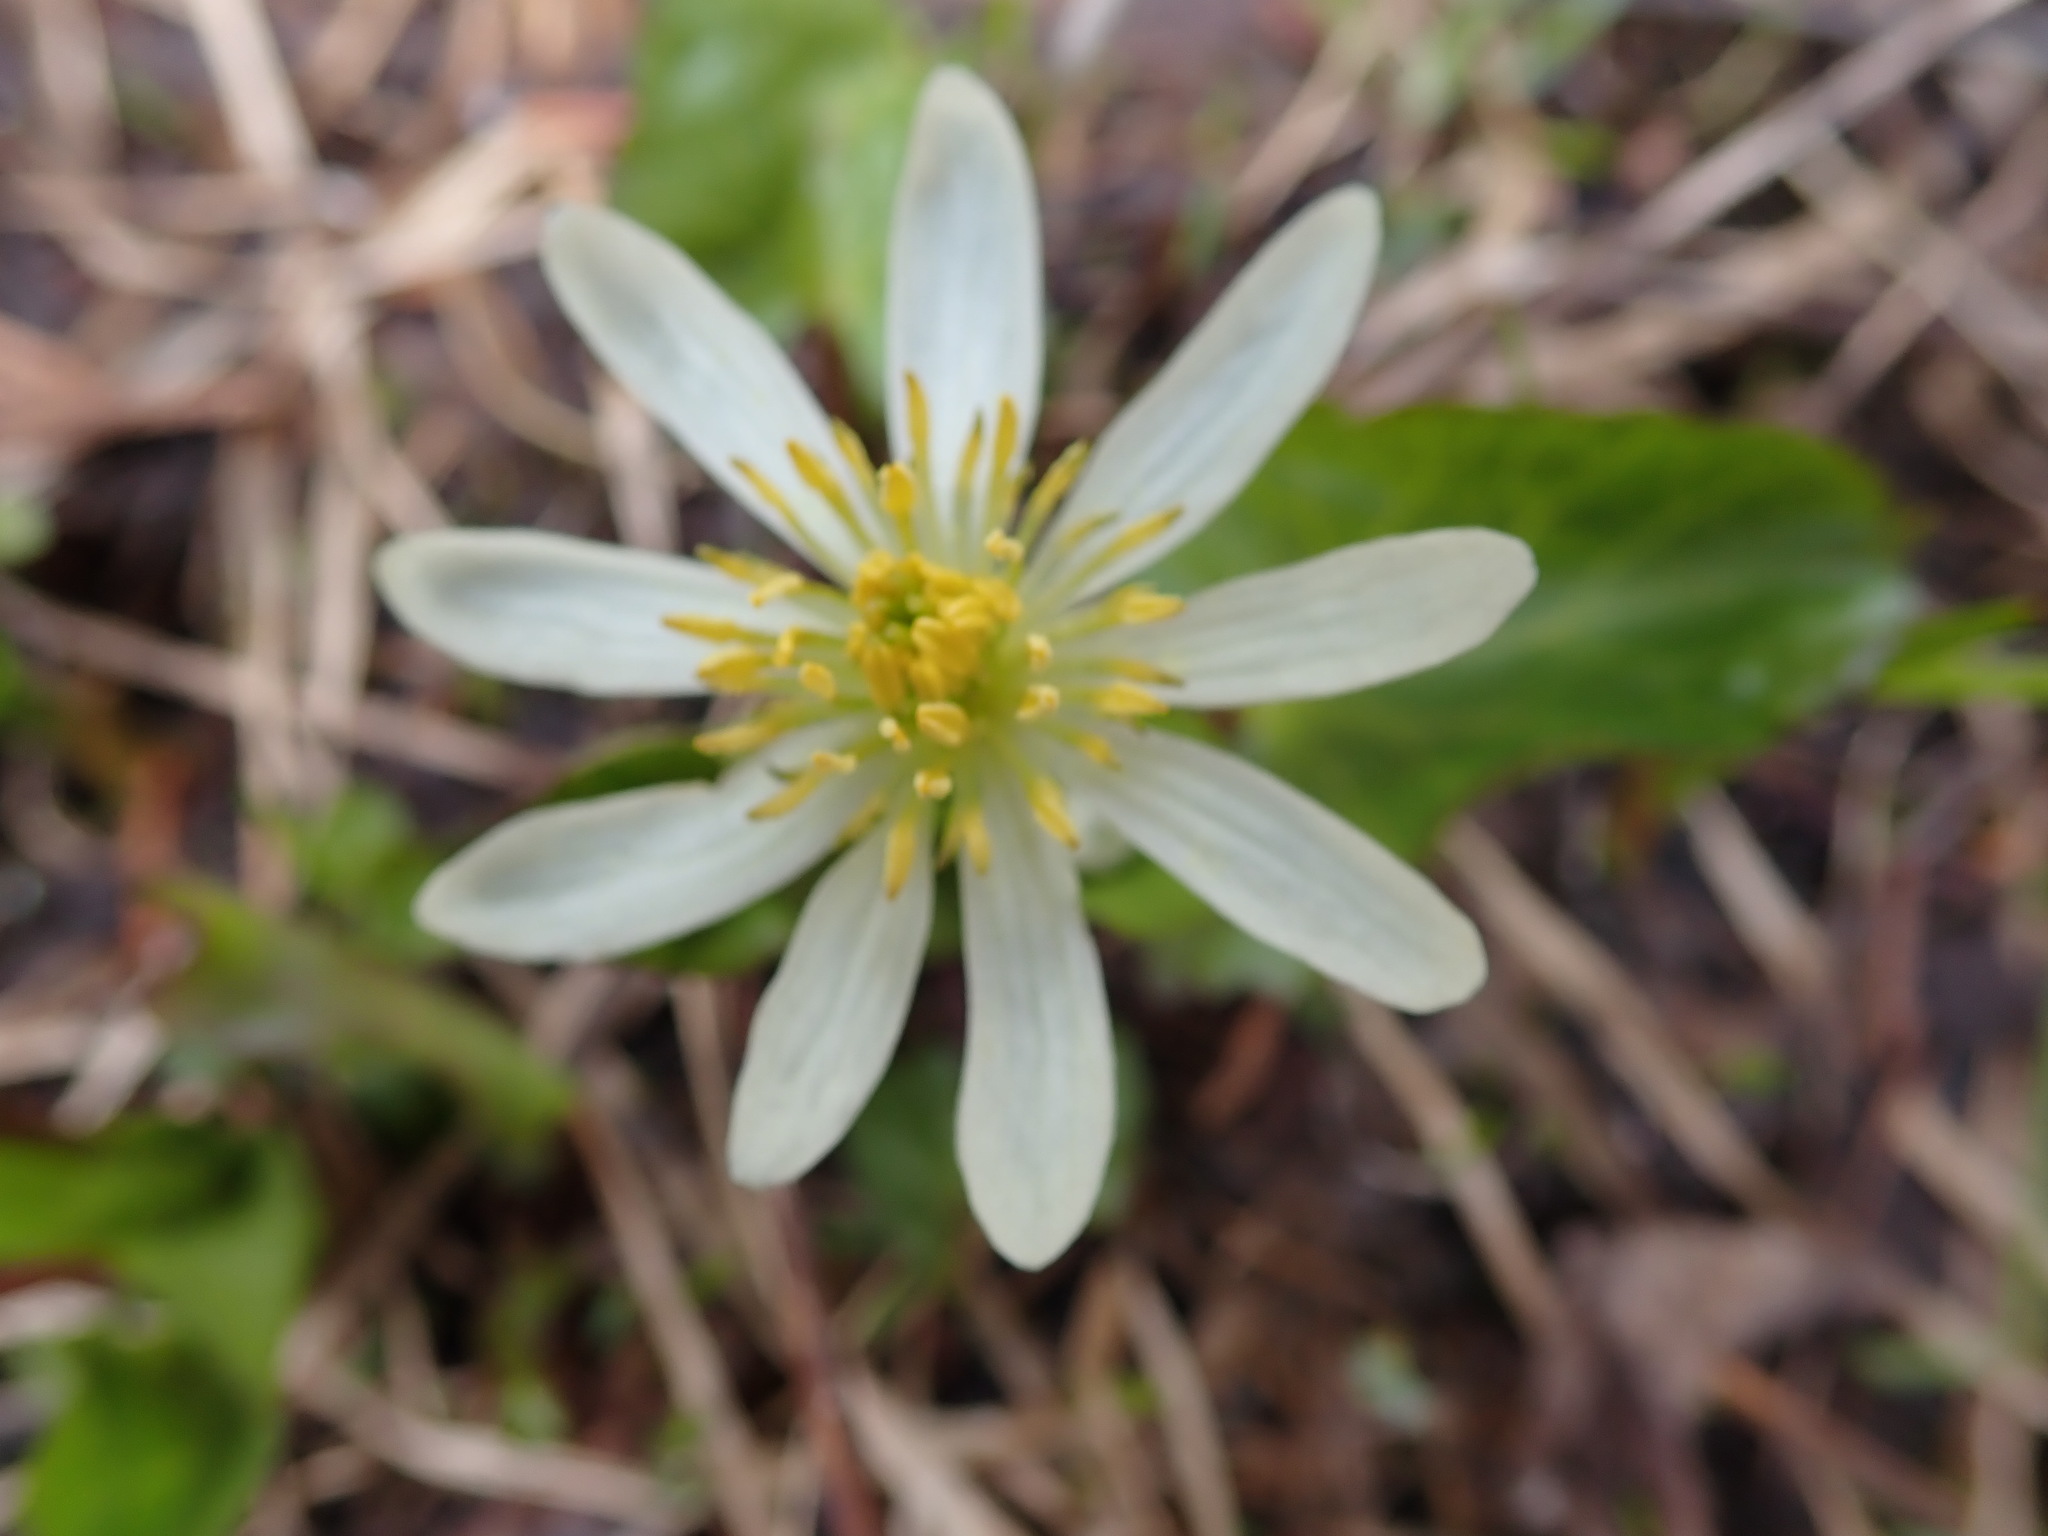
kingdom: Plantae
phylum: Tracheophyta
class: Magnoliopsida
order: Ranunculales
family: Ranunculaceae
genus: Caltha
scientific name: Caltha leptosepala
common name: Elkslip
